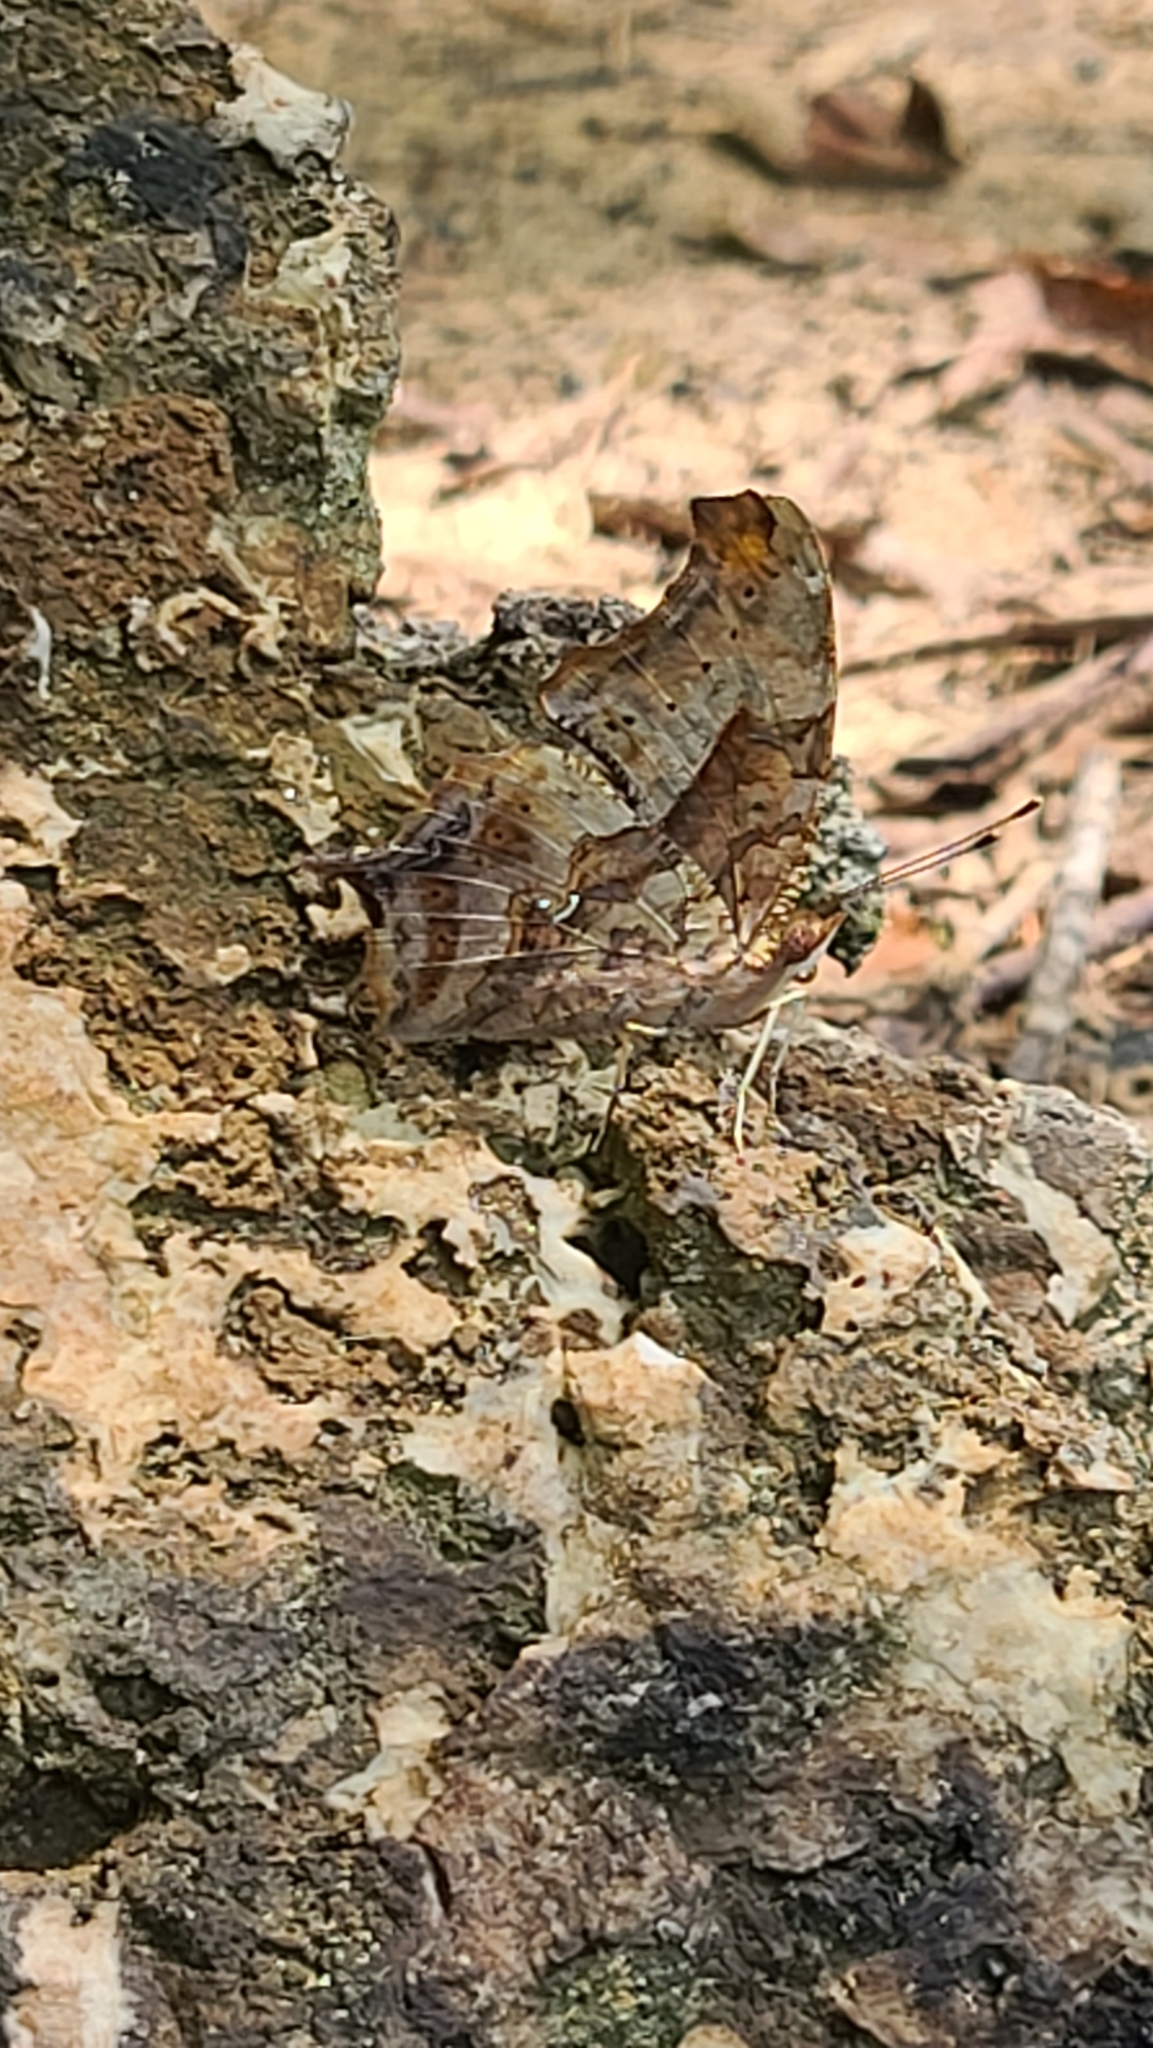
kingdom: Animalia
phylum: Arthropoda
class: Insecta
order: Lepidoptera
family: Nymphalidae
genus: Polygonia
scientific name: Polygonia interrogationis
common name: Question mark
